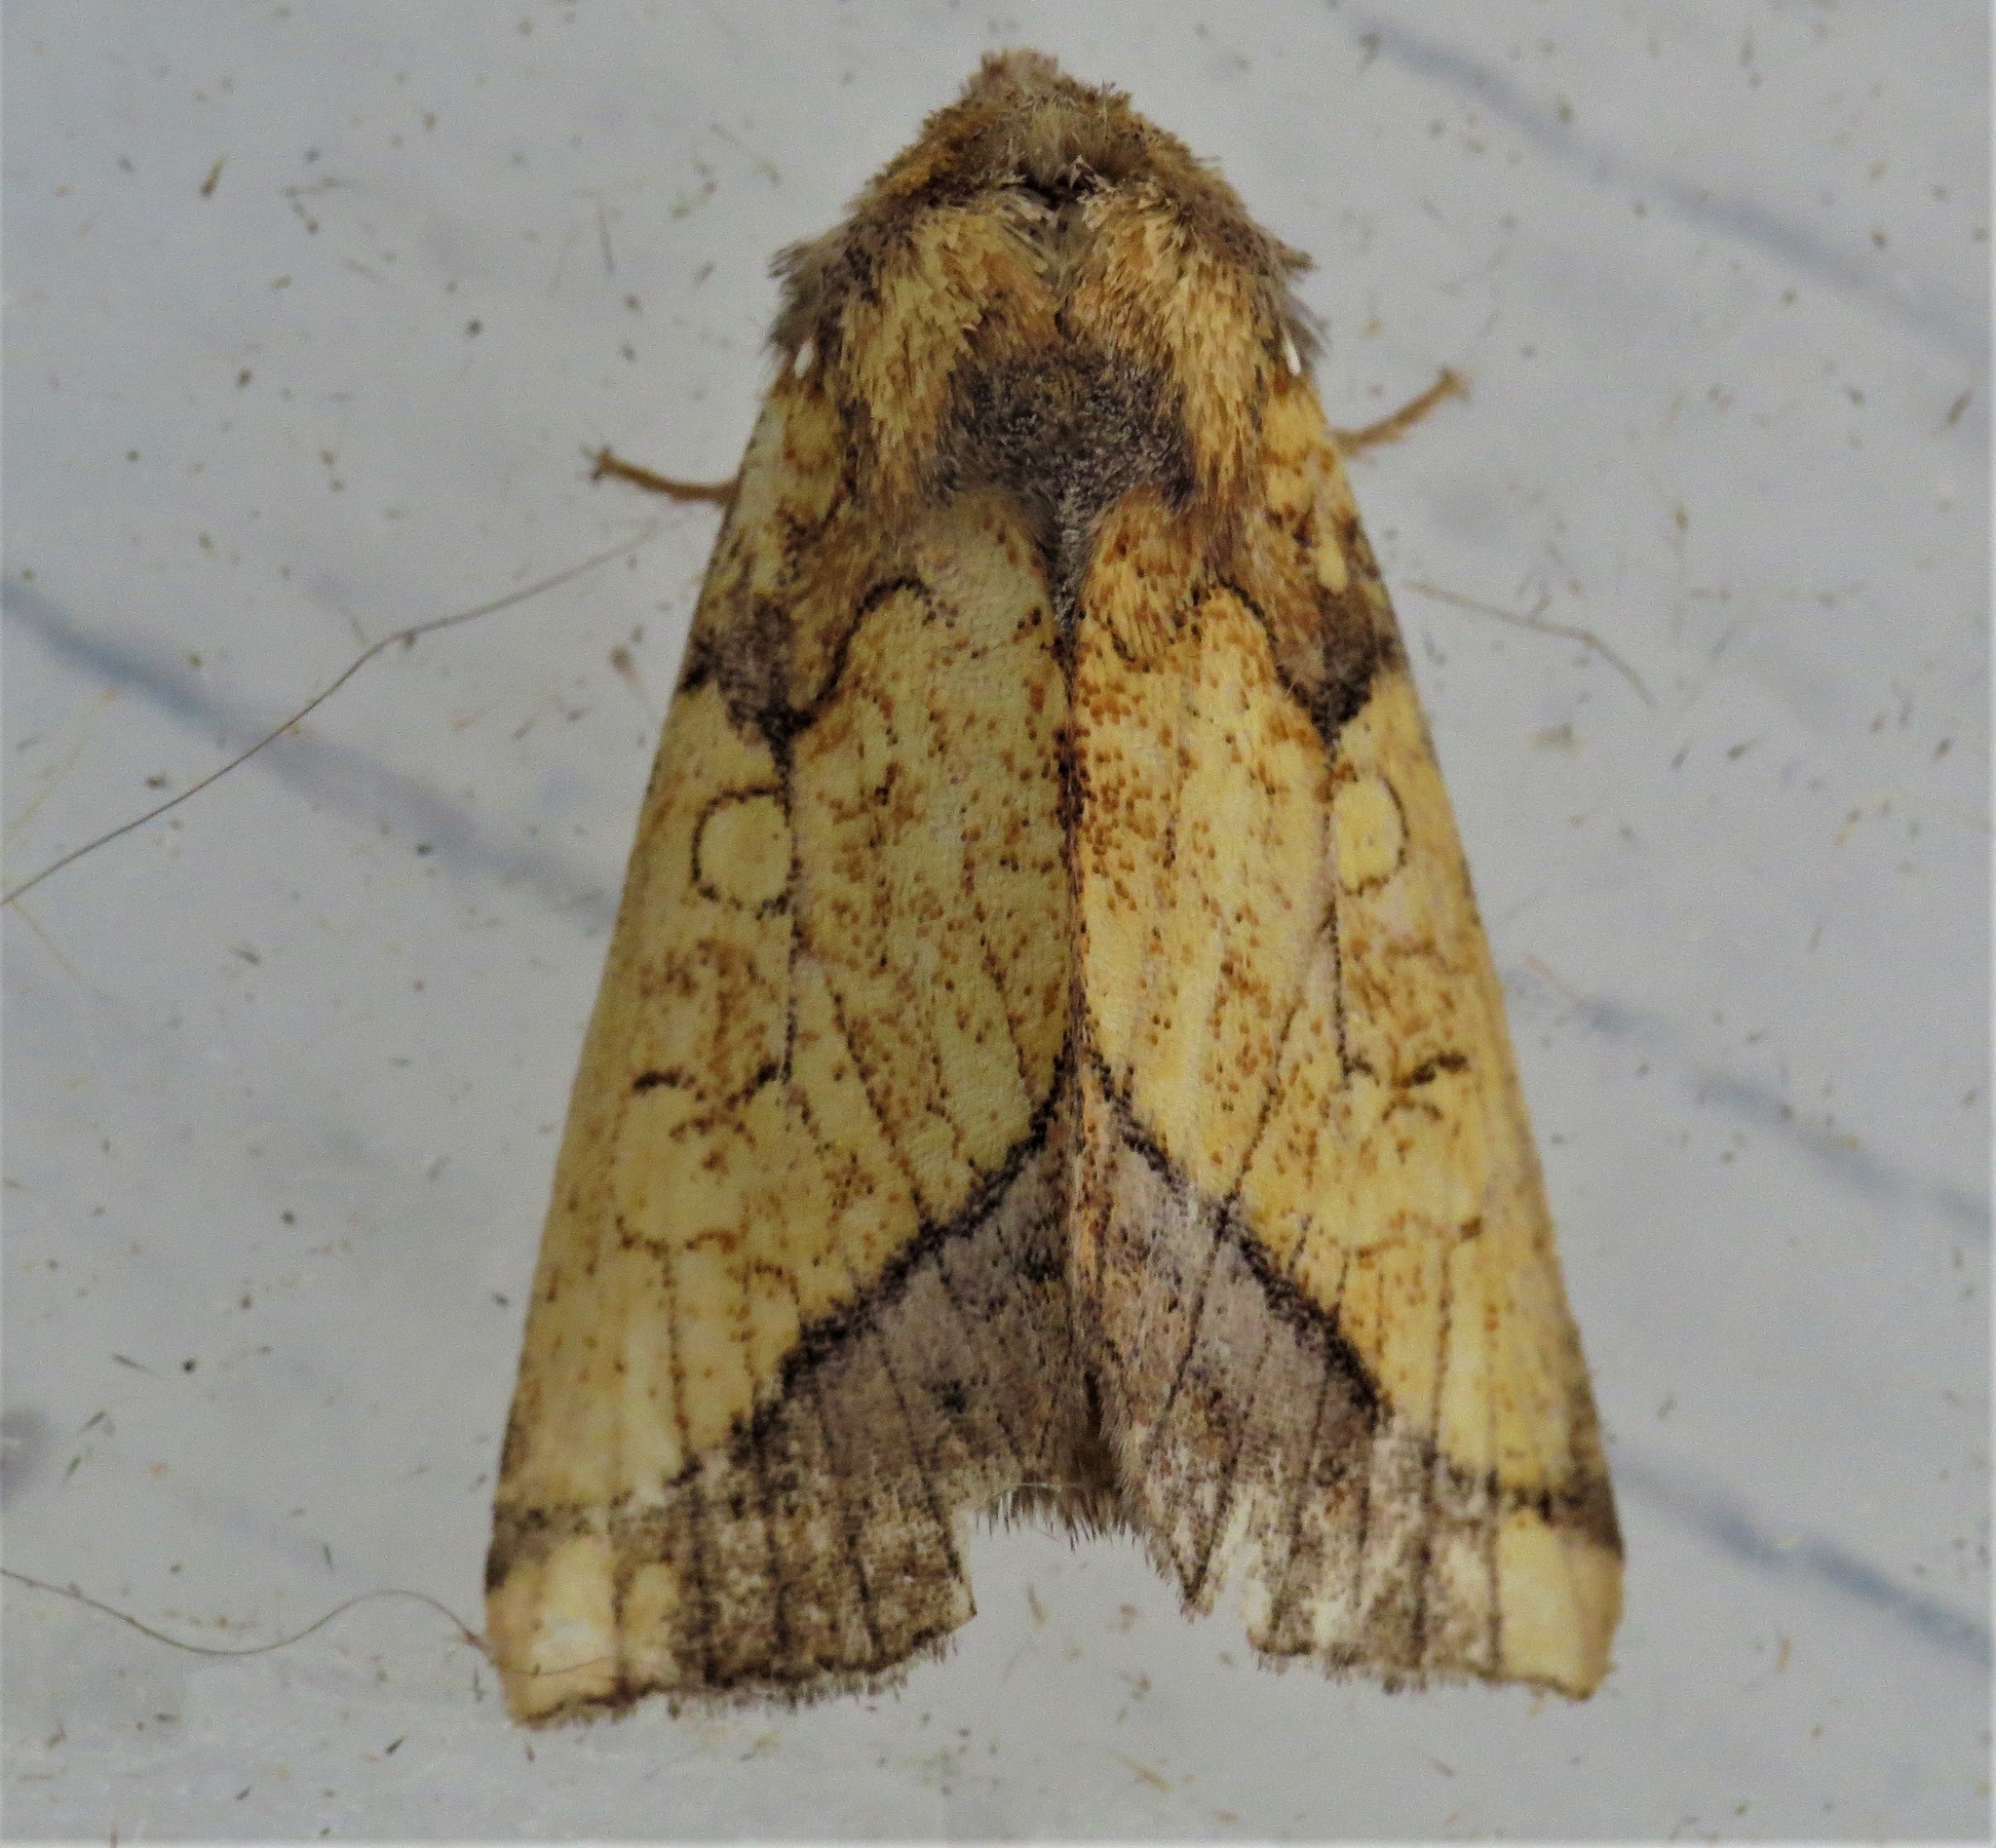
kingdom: Animalia
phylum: Arthropoda
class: Insecta
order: Lepidoptera
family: Noctuidae
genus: Papaipema
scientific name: Papaipema rigida
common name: Rigid sunflower borer moth
